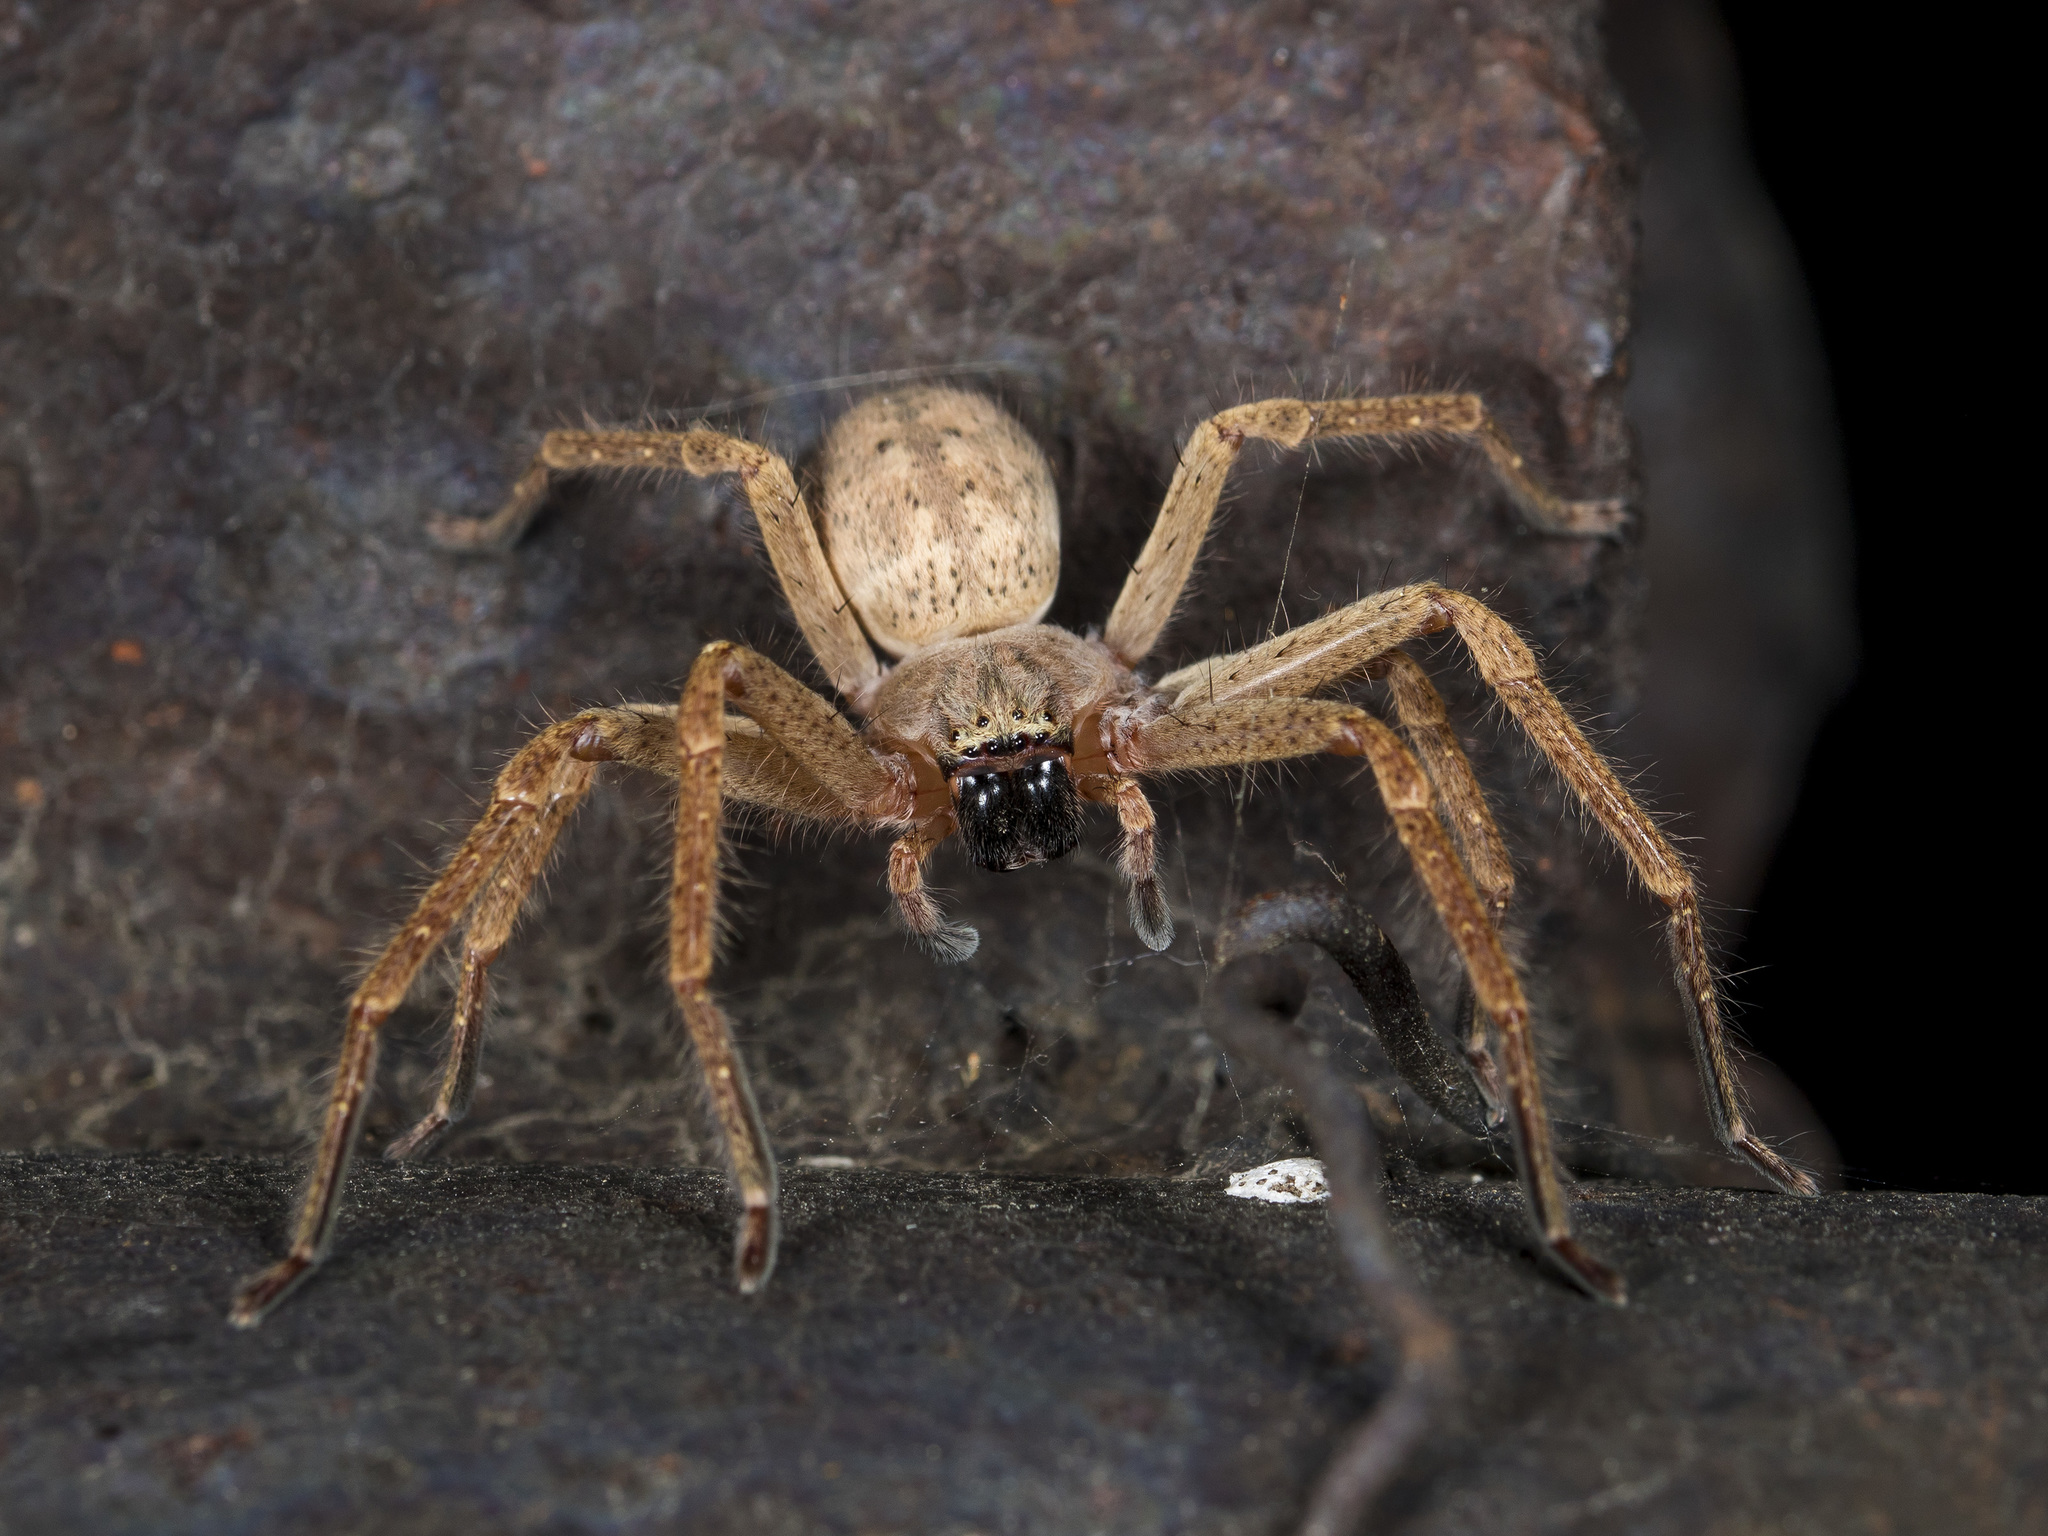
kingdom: Animalia
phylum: Arthropoda
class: Arachnida
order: Araneae
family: Sparassidae
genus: Olios
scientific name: Olios sericeus
